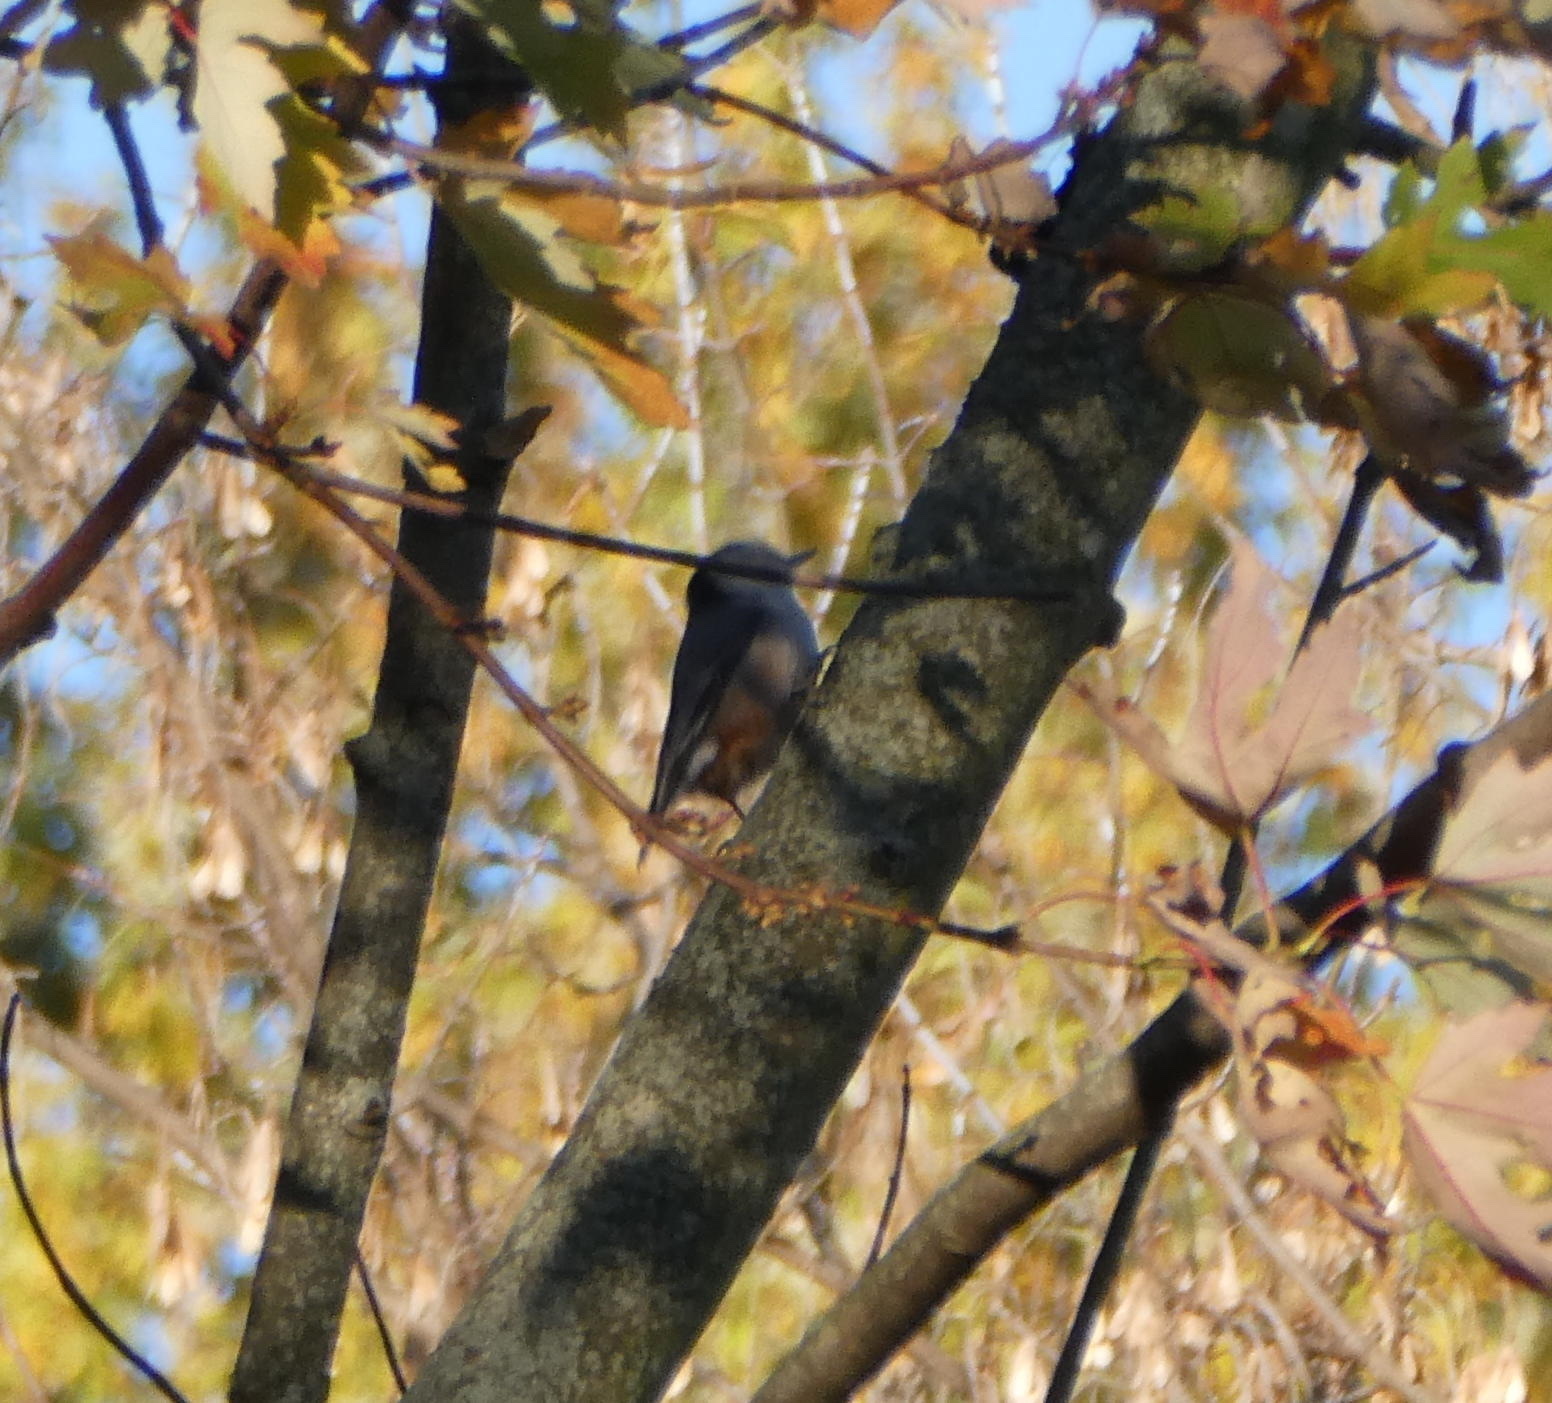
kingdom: Animalia
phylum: Chordata
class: Aves
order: Passeriformes
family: Sittidae
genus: Sitta
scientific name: Sitta carolinensis
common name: White-breasted nuthatch
